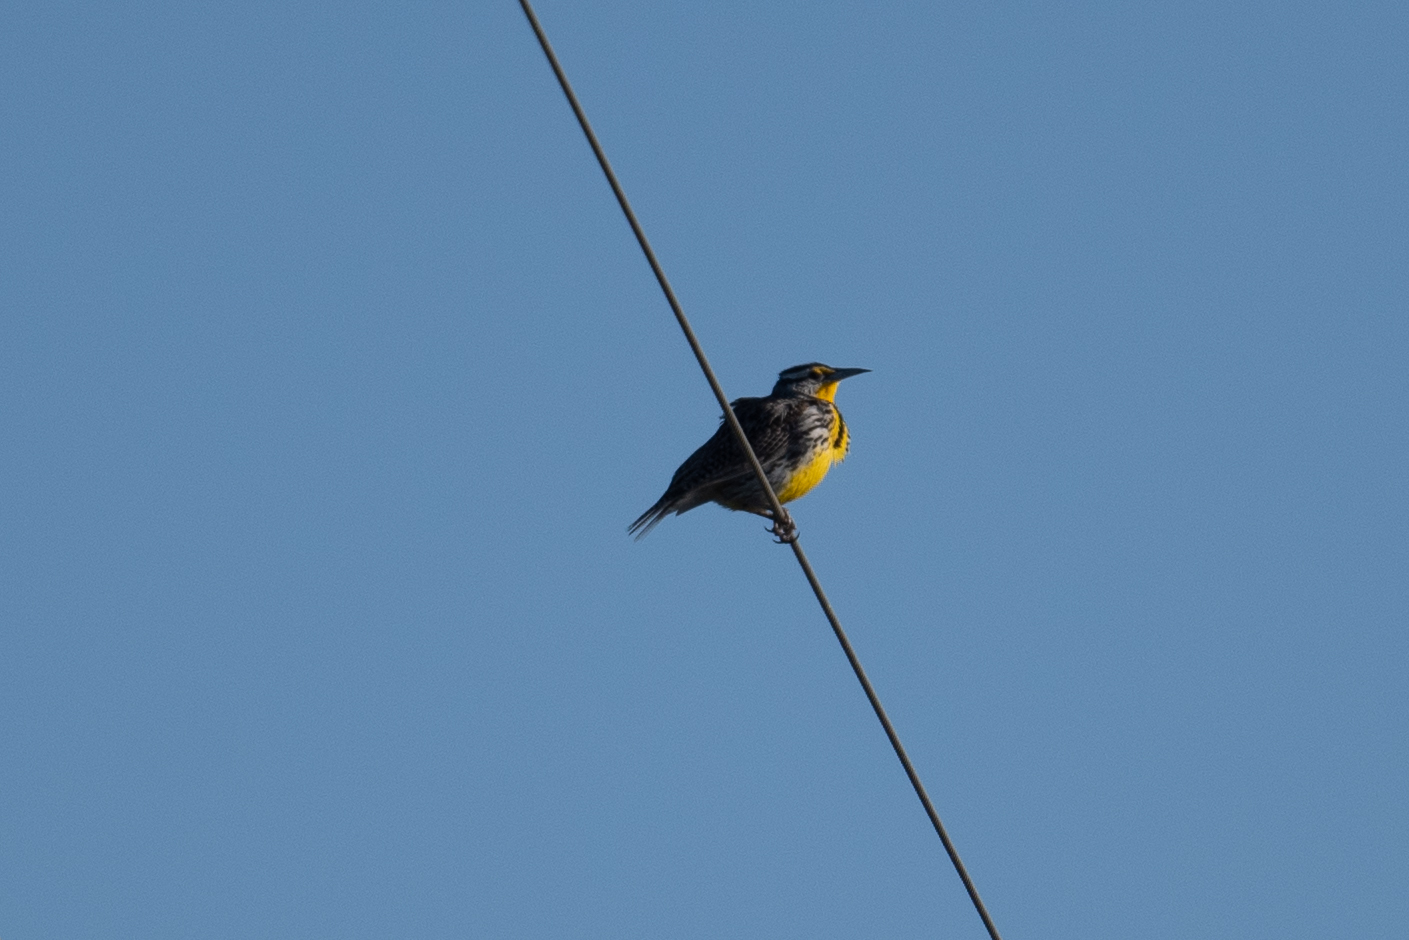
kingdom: Animalia
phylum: Chordata
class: Aves
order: Passeriformes
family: Icteridae
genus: Sturnella
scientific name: Sturnella neglecta
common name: Western meadowlark
